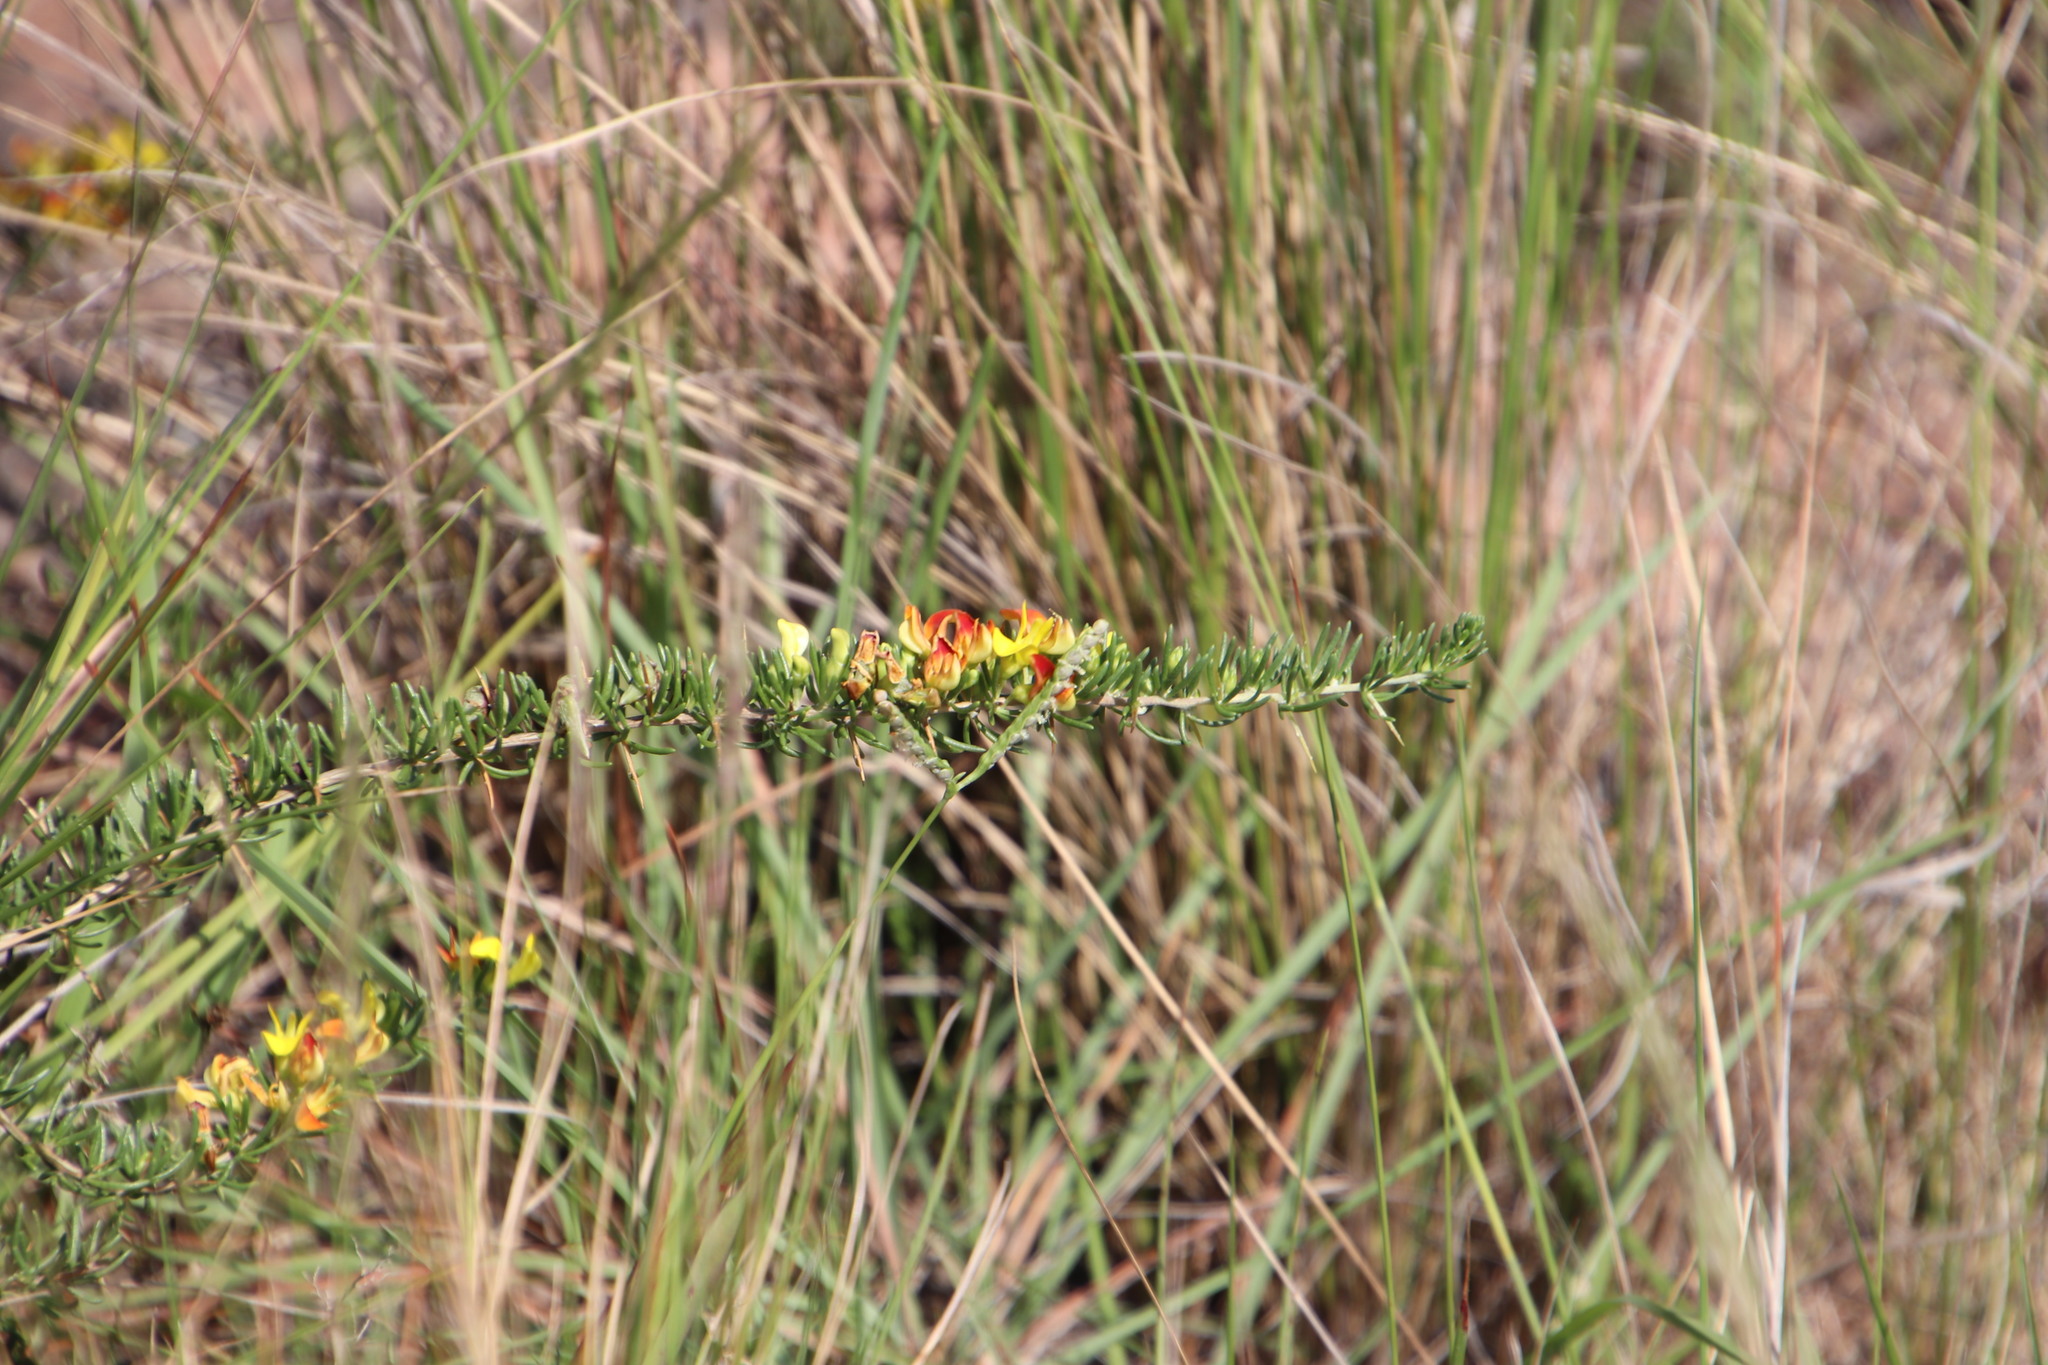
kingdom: Plantae
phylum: Tracheophyta
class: Magnoliopsida
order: Fabales
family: Fabaceae
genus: Aspalathus
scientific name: Aspalathus spinifera
